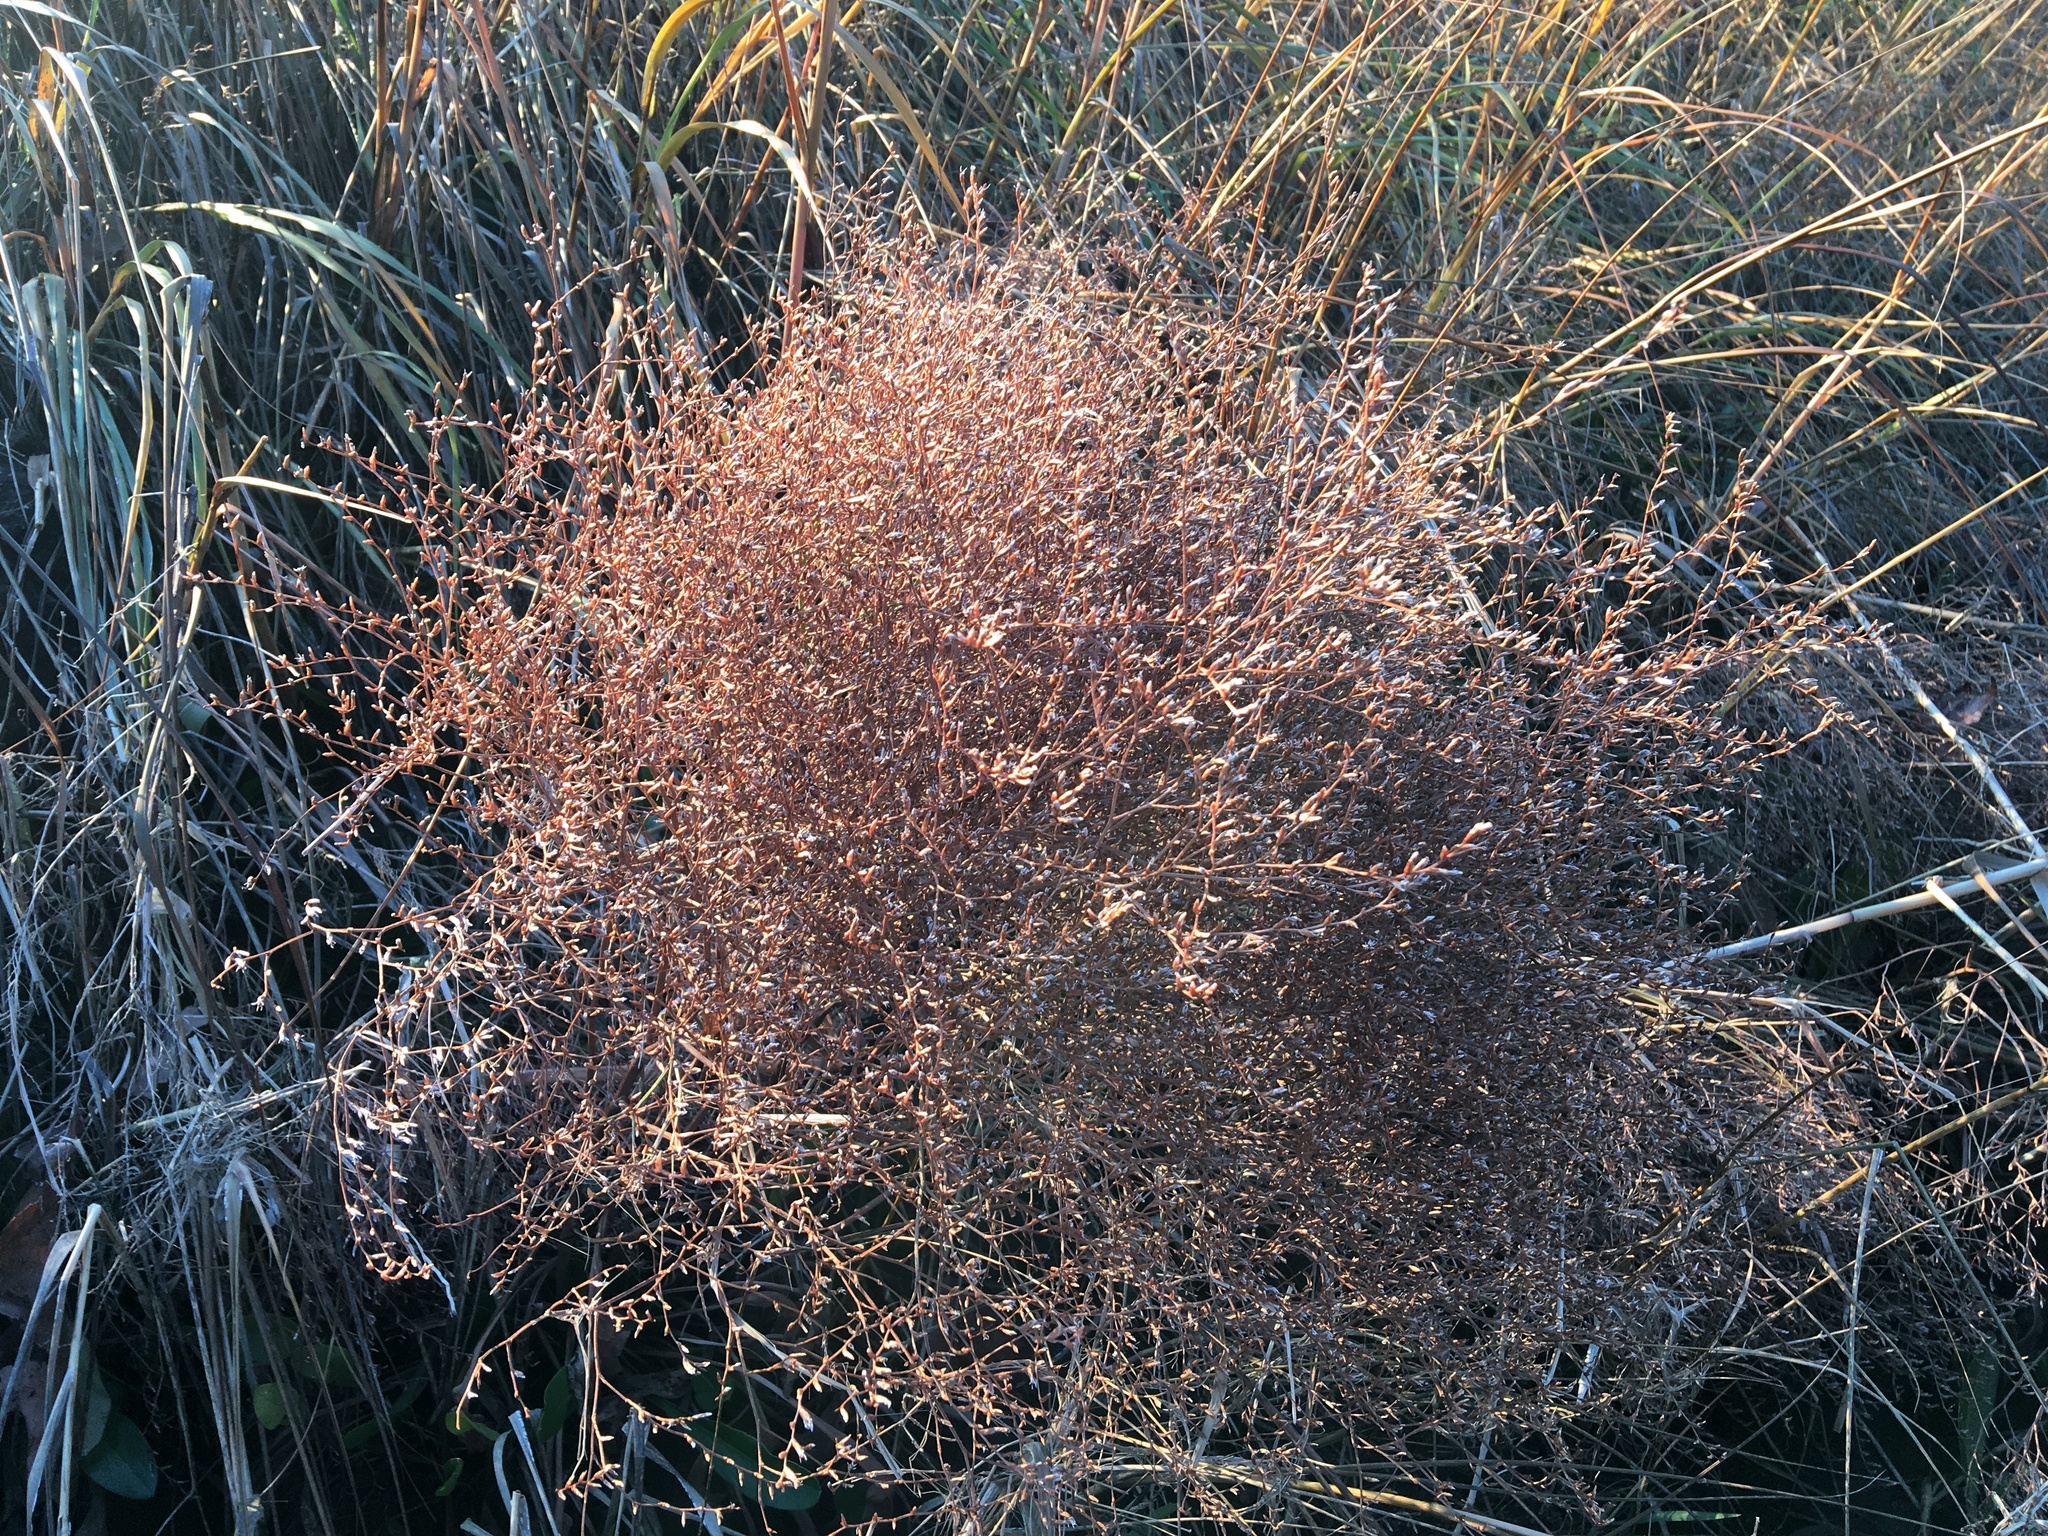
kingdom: Plantae
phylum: Tracheophyta
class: Magnoliopsida
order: Caryophyllales
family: Plumbaginaceae
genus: Limonium
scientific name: Limonium carolinianum
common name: Carolina sea lavender
